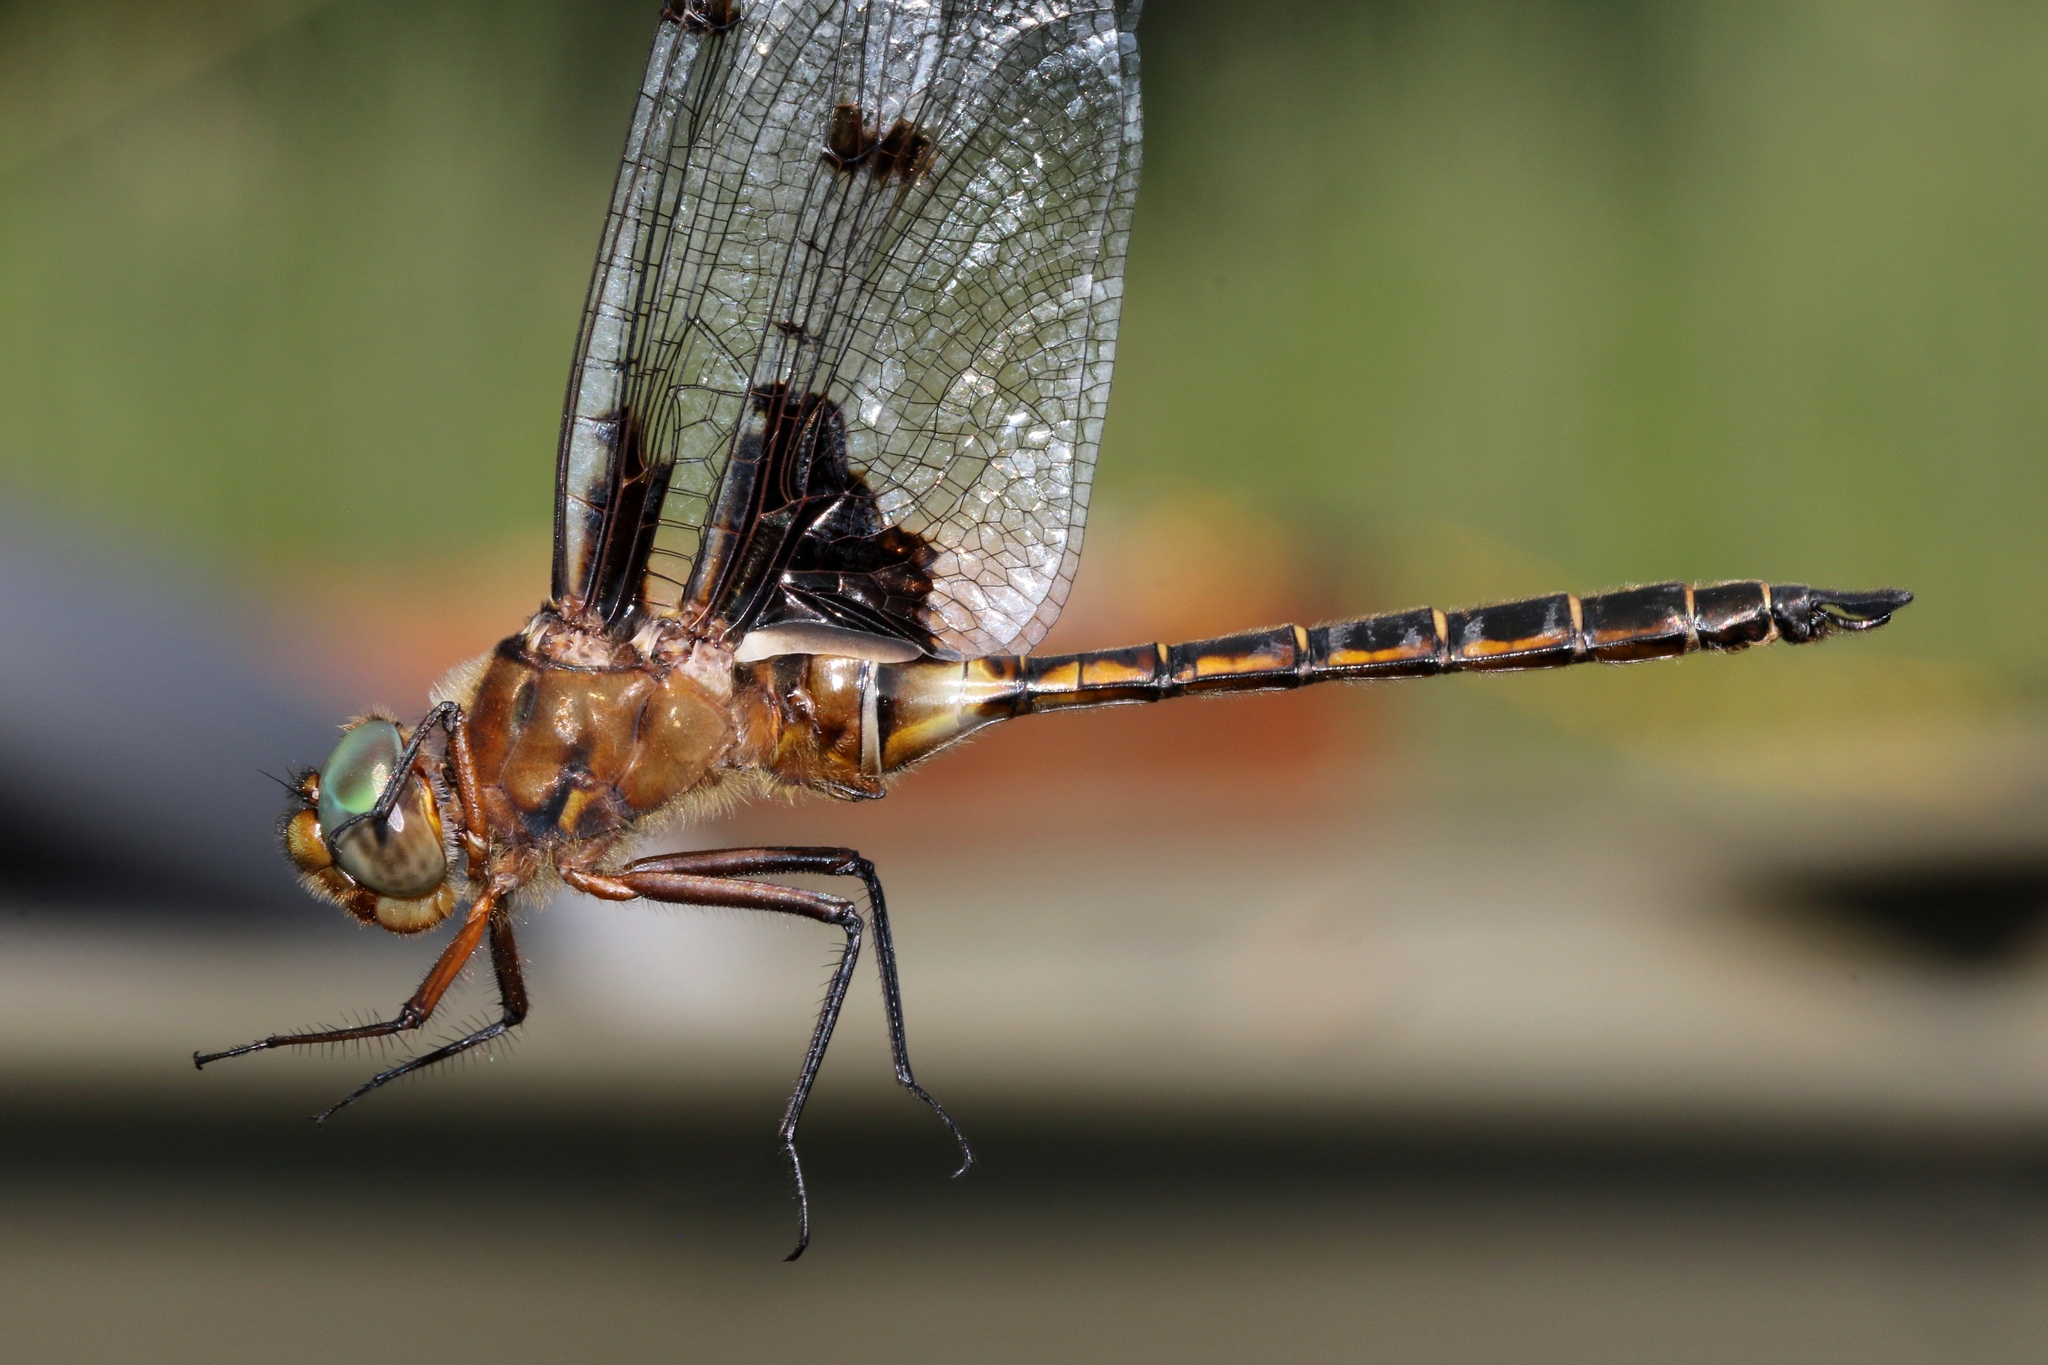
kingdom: Animalia
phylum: Arthropoda
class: Insecta
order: Odonata
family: Corduliidae
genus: Epitheca
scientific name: Epitheca princeps
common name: Prince baskettail
